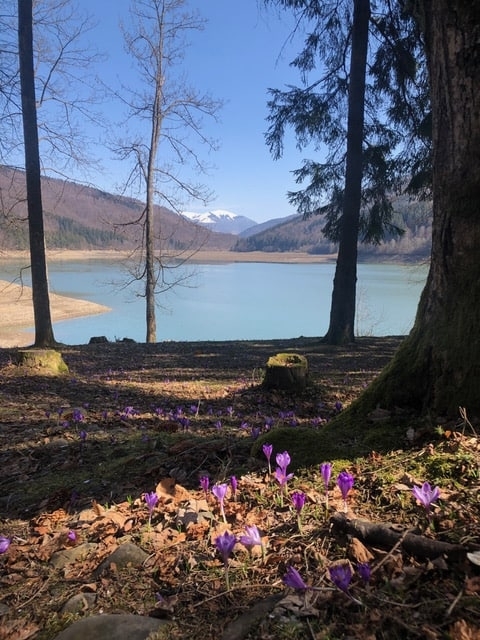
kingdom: Plantae
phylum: Tracheophyta
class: Liliopsida
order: Asparagales
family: Iridaceae
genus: Crocus
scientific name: Crocus heuffelianus
